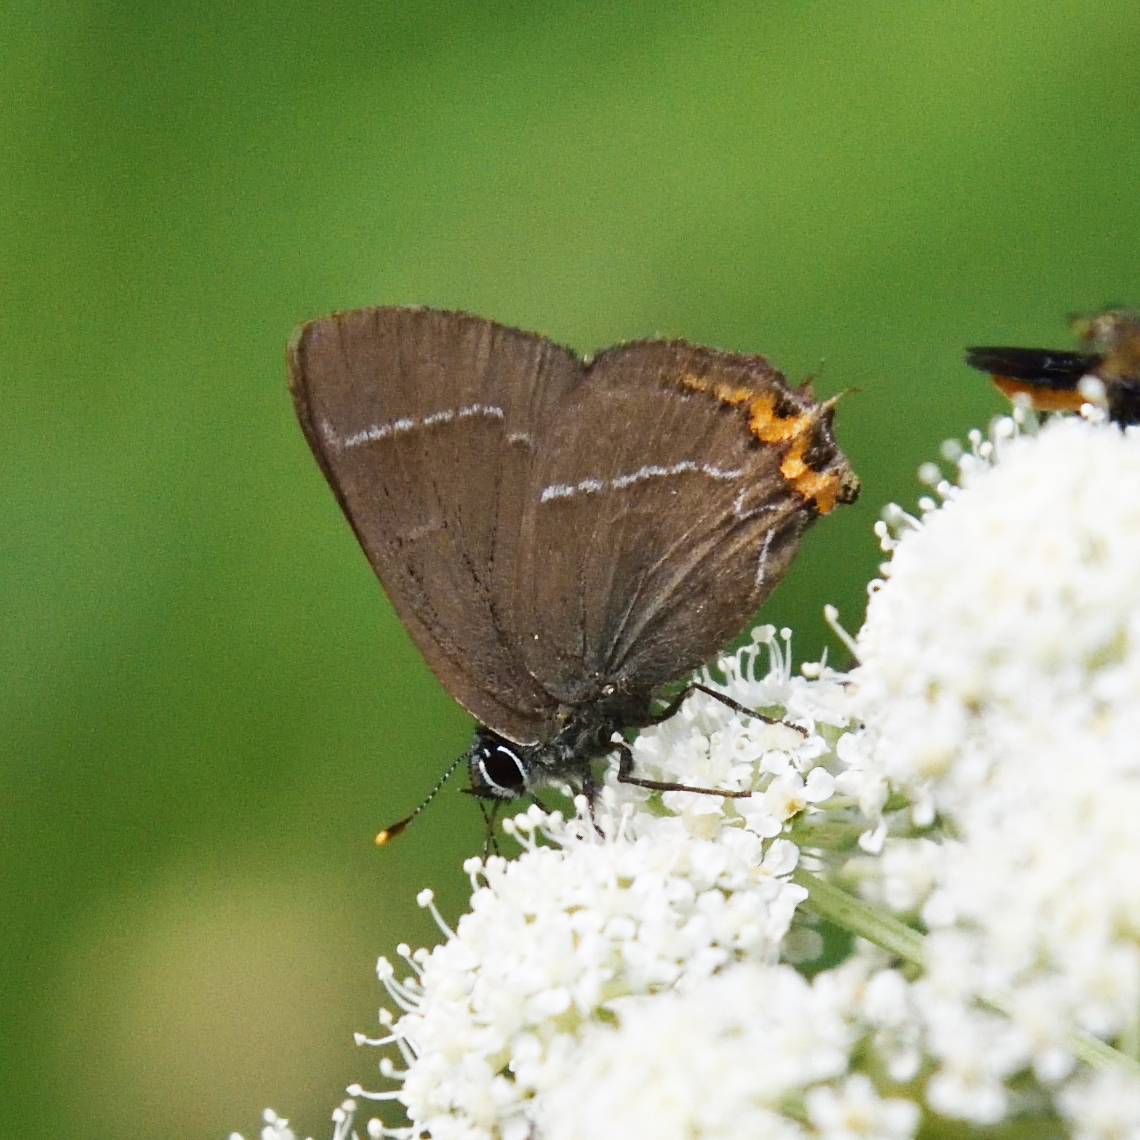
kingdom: Animalia
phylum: Arthropoda
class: Insecta
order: Lepidoptera
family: Lycaenidae
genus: Satyrium
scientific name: Satyrium w-album
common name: White-letter hairstreak
